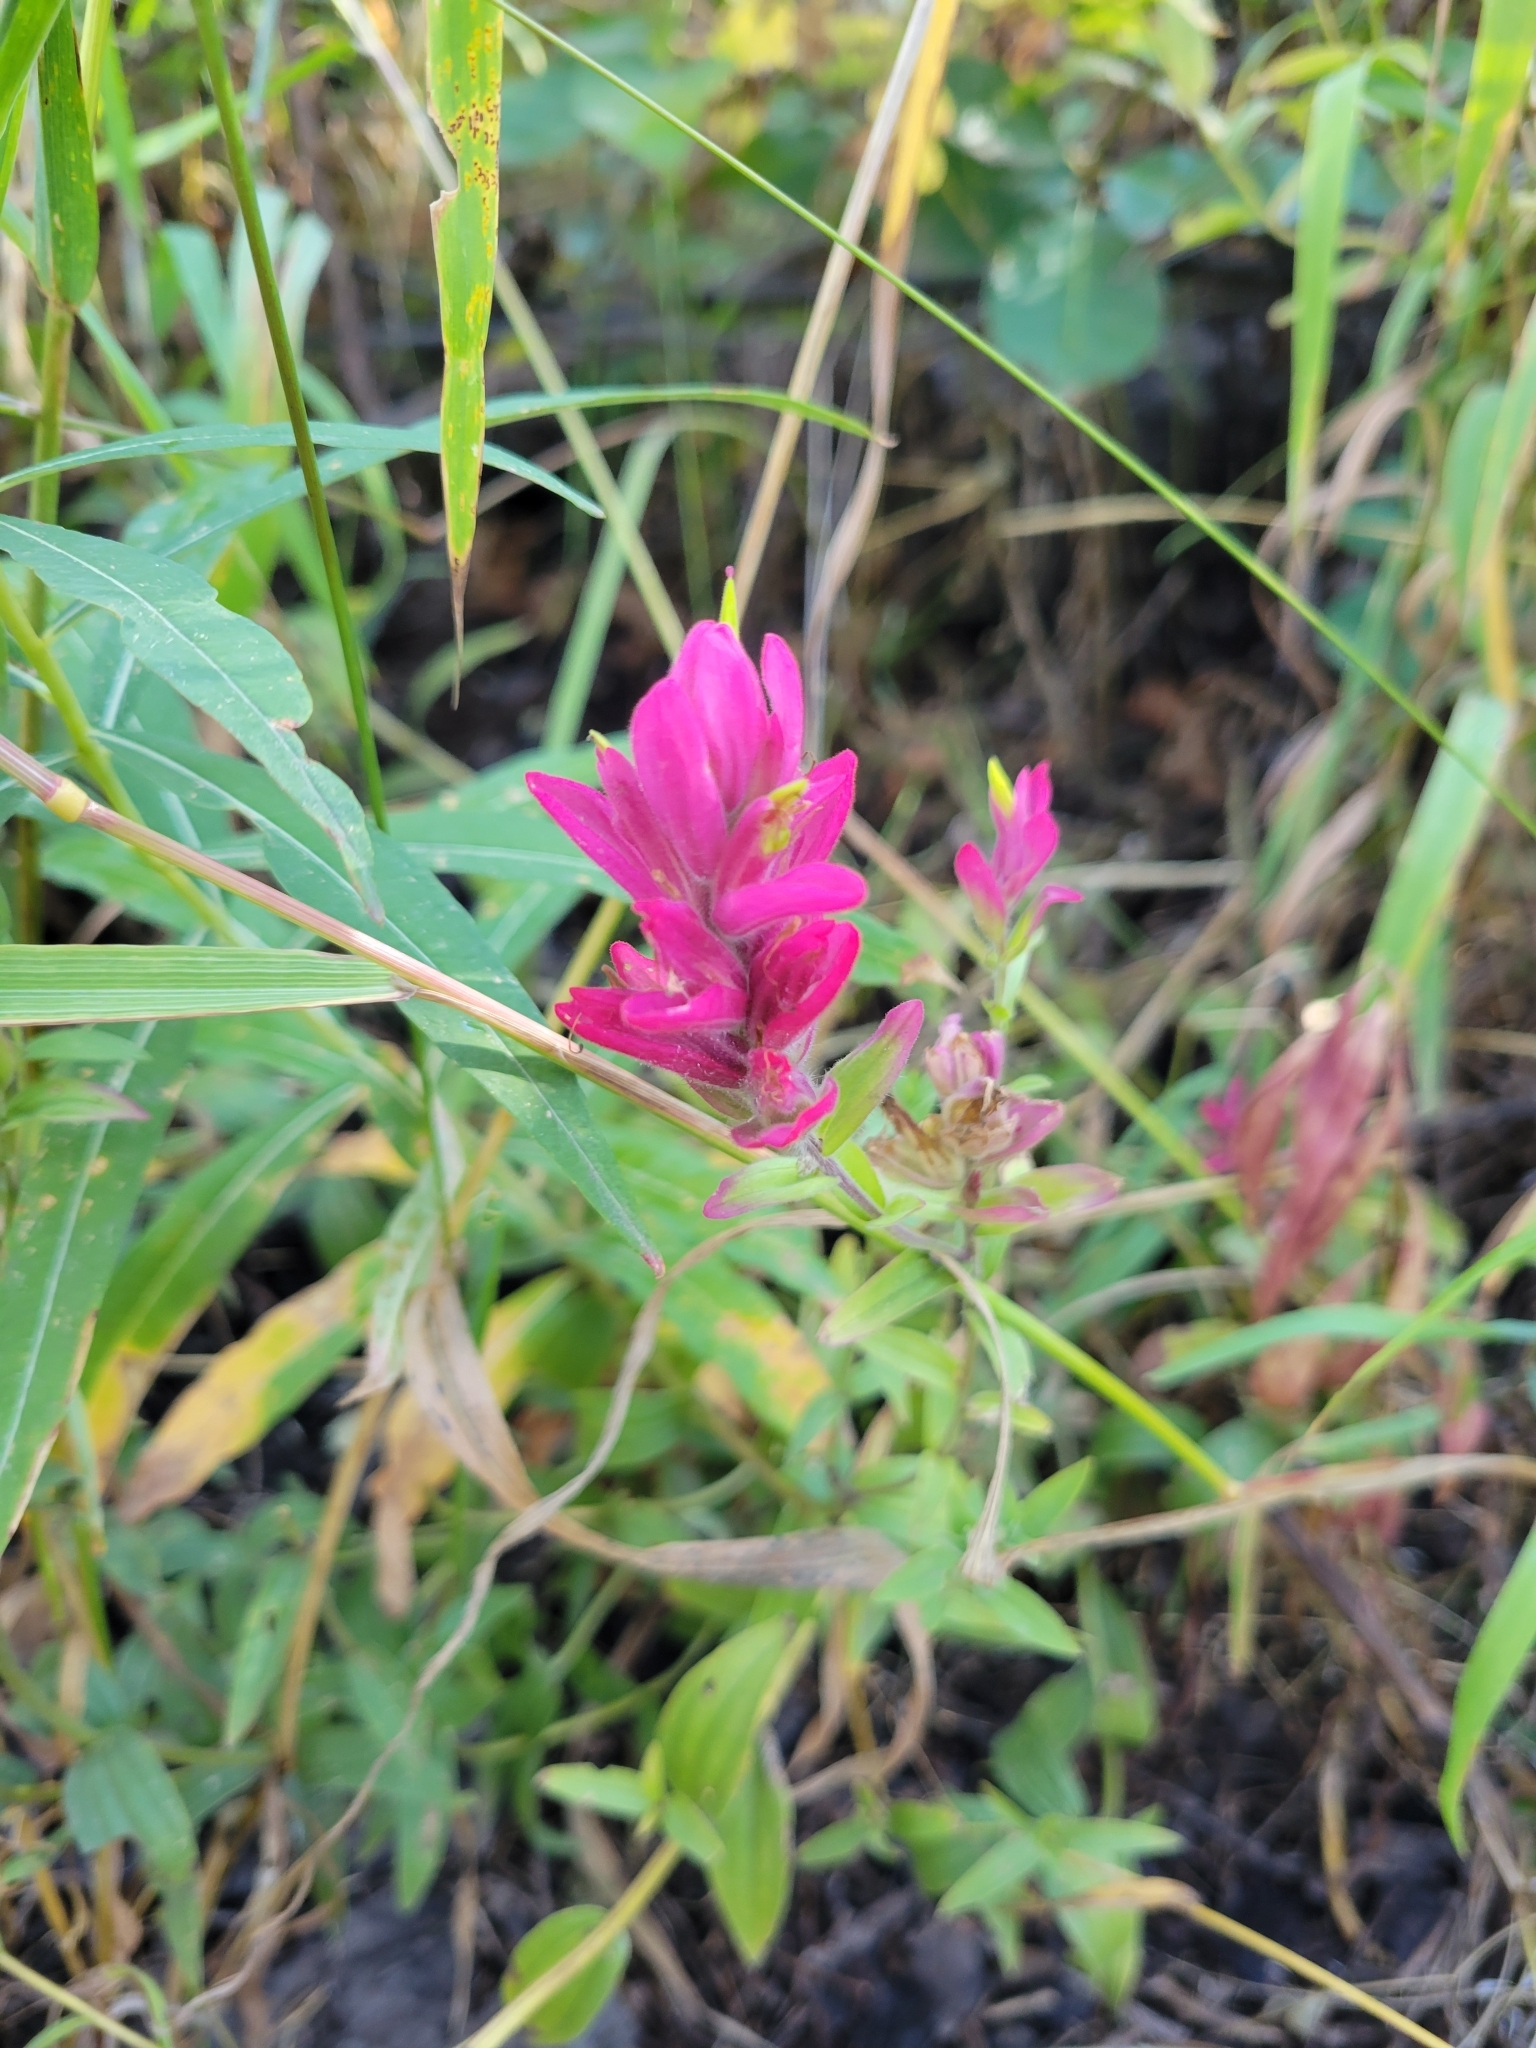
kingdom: Plantae
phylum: Tracheophyta
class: Magnoliopsida
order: Lamiales
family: Orobanchaceae
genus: Castilleja
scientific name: Castilleja rhexifolia
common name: Rocky mountain paintbrush
